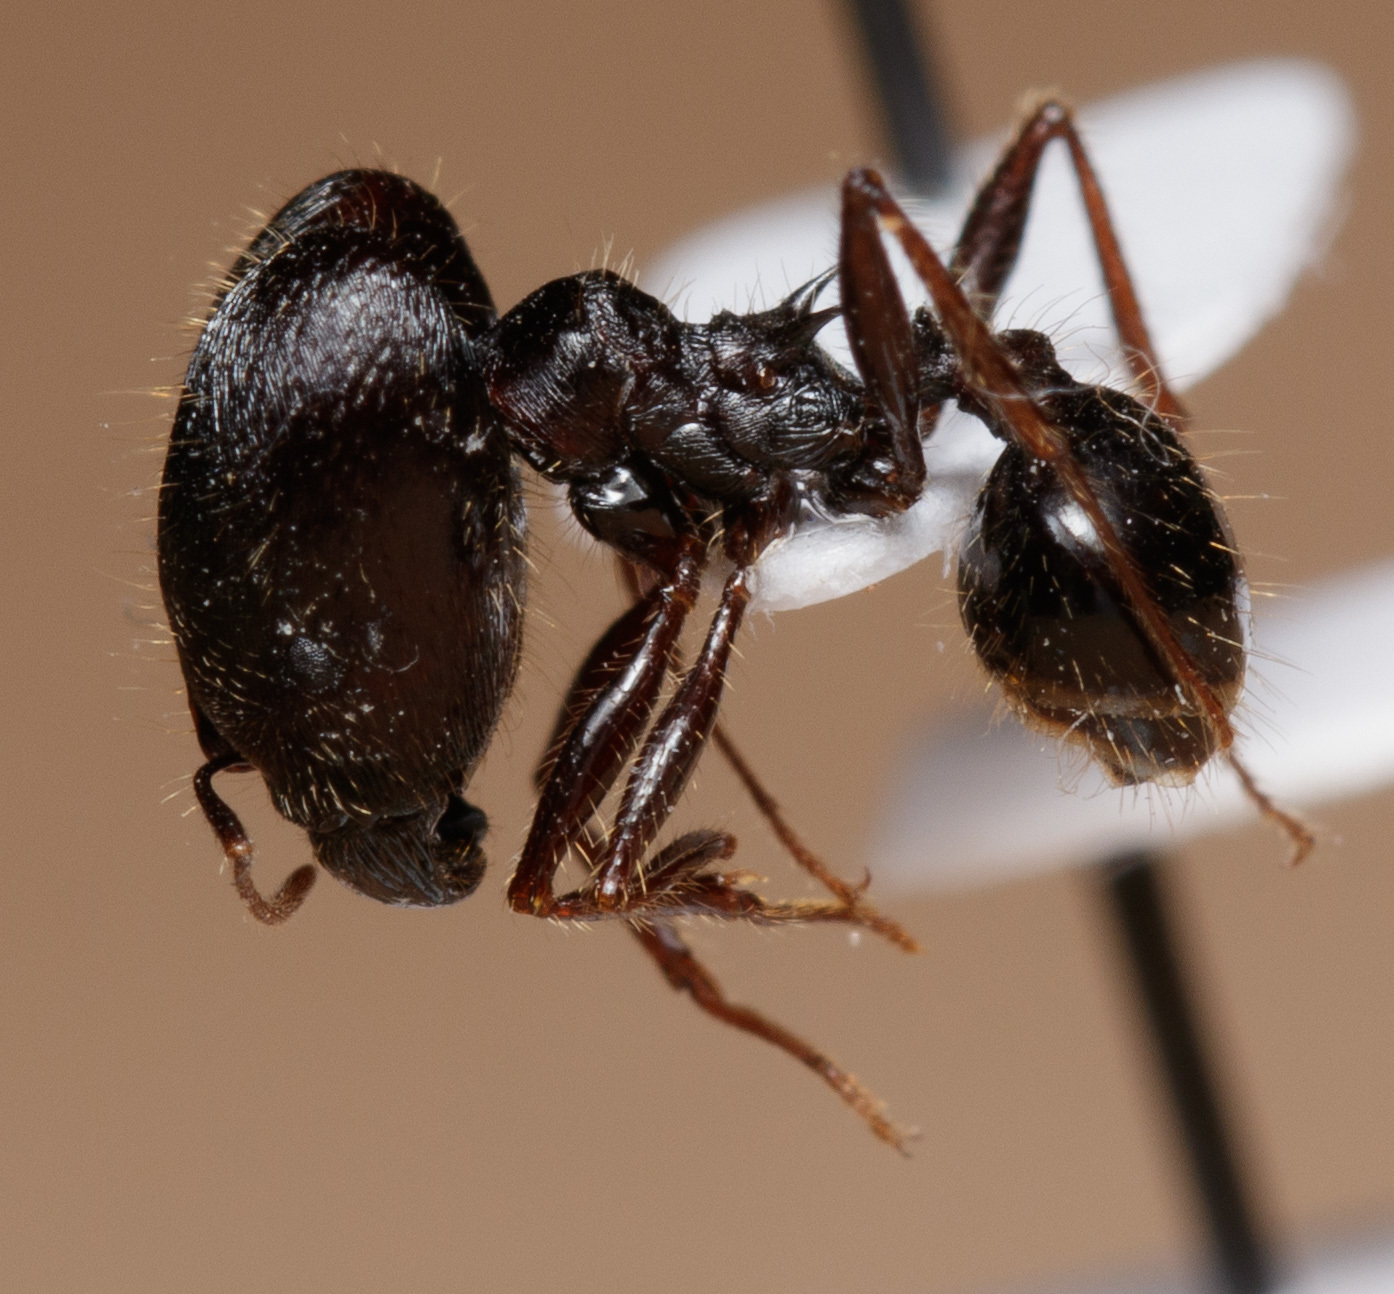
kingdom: Animalia
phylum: Arthropoda
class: Insecta
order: Hymenoptera
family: Formicidae
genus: Pheidole
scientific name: Pheidole rhea
